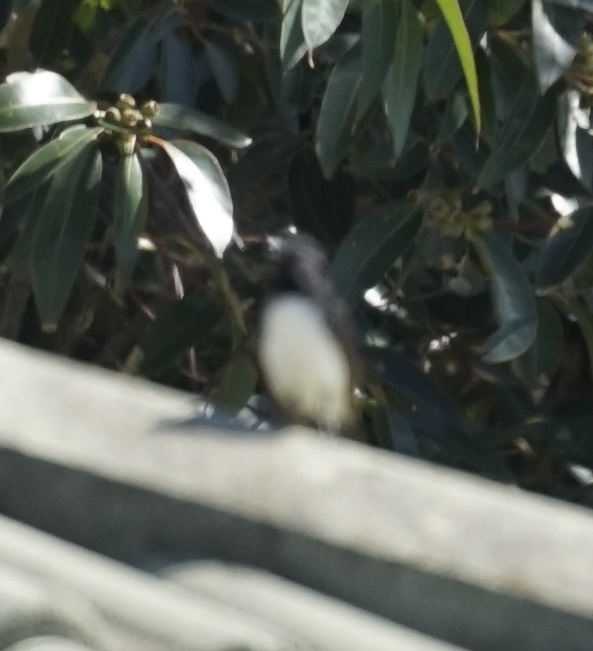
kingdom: Animalia
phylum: Chordata
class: Aves
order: Passeriformes
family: Rhipiduridae
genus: Rhipidura
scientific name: Rhipidura leucophrys
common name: Willie wagtail
